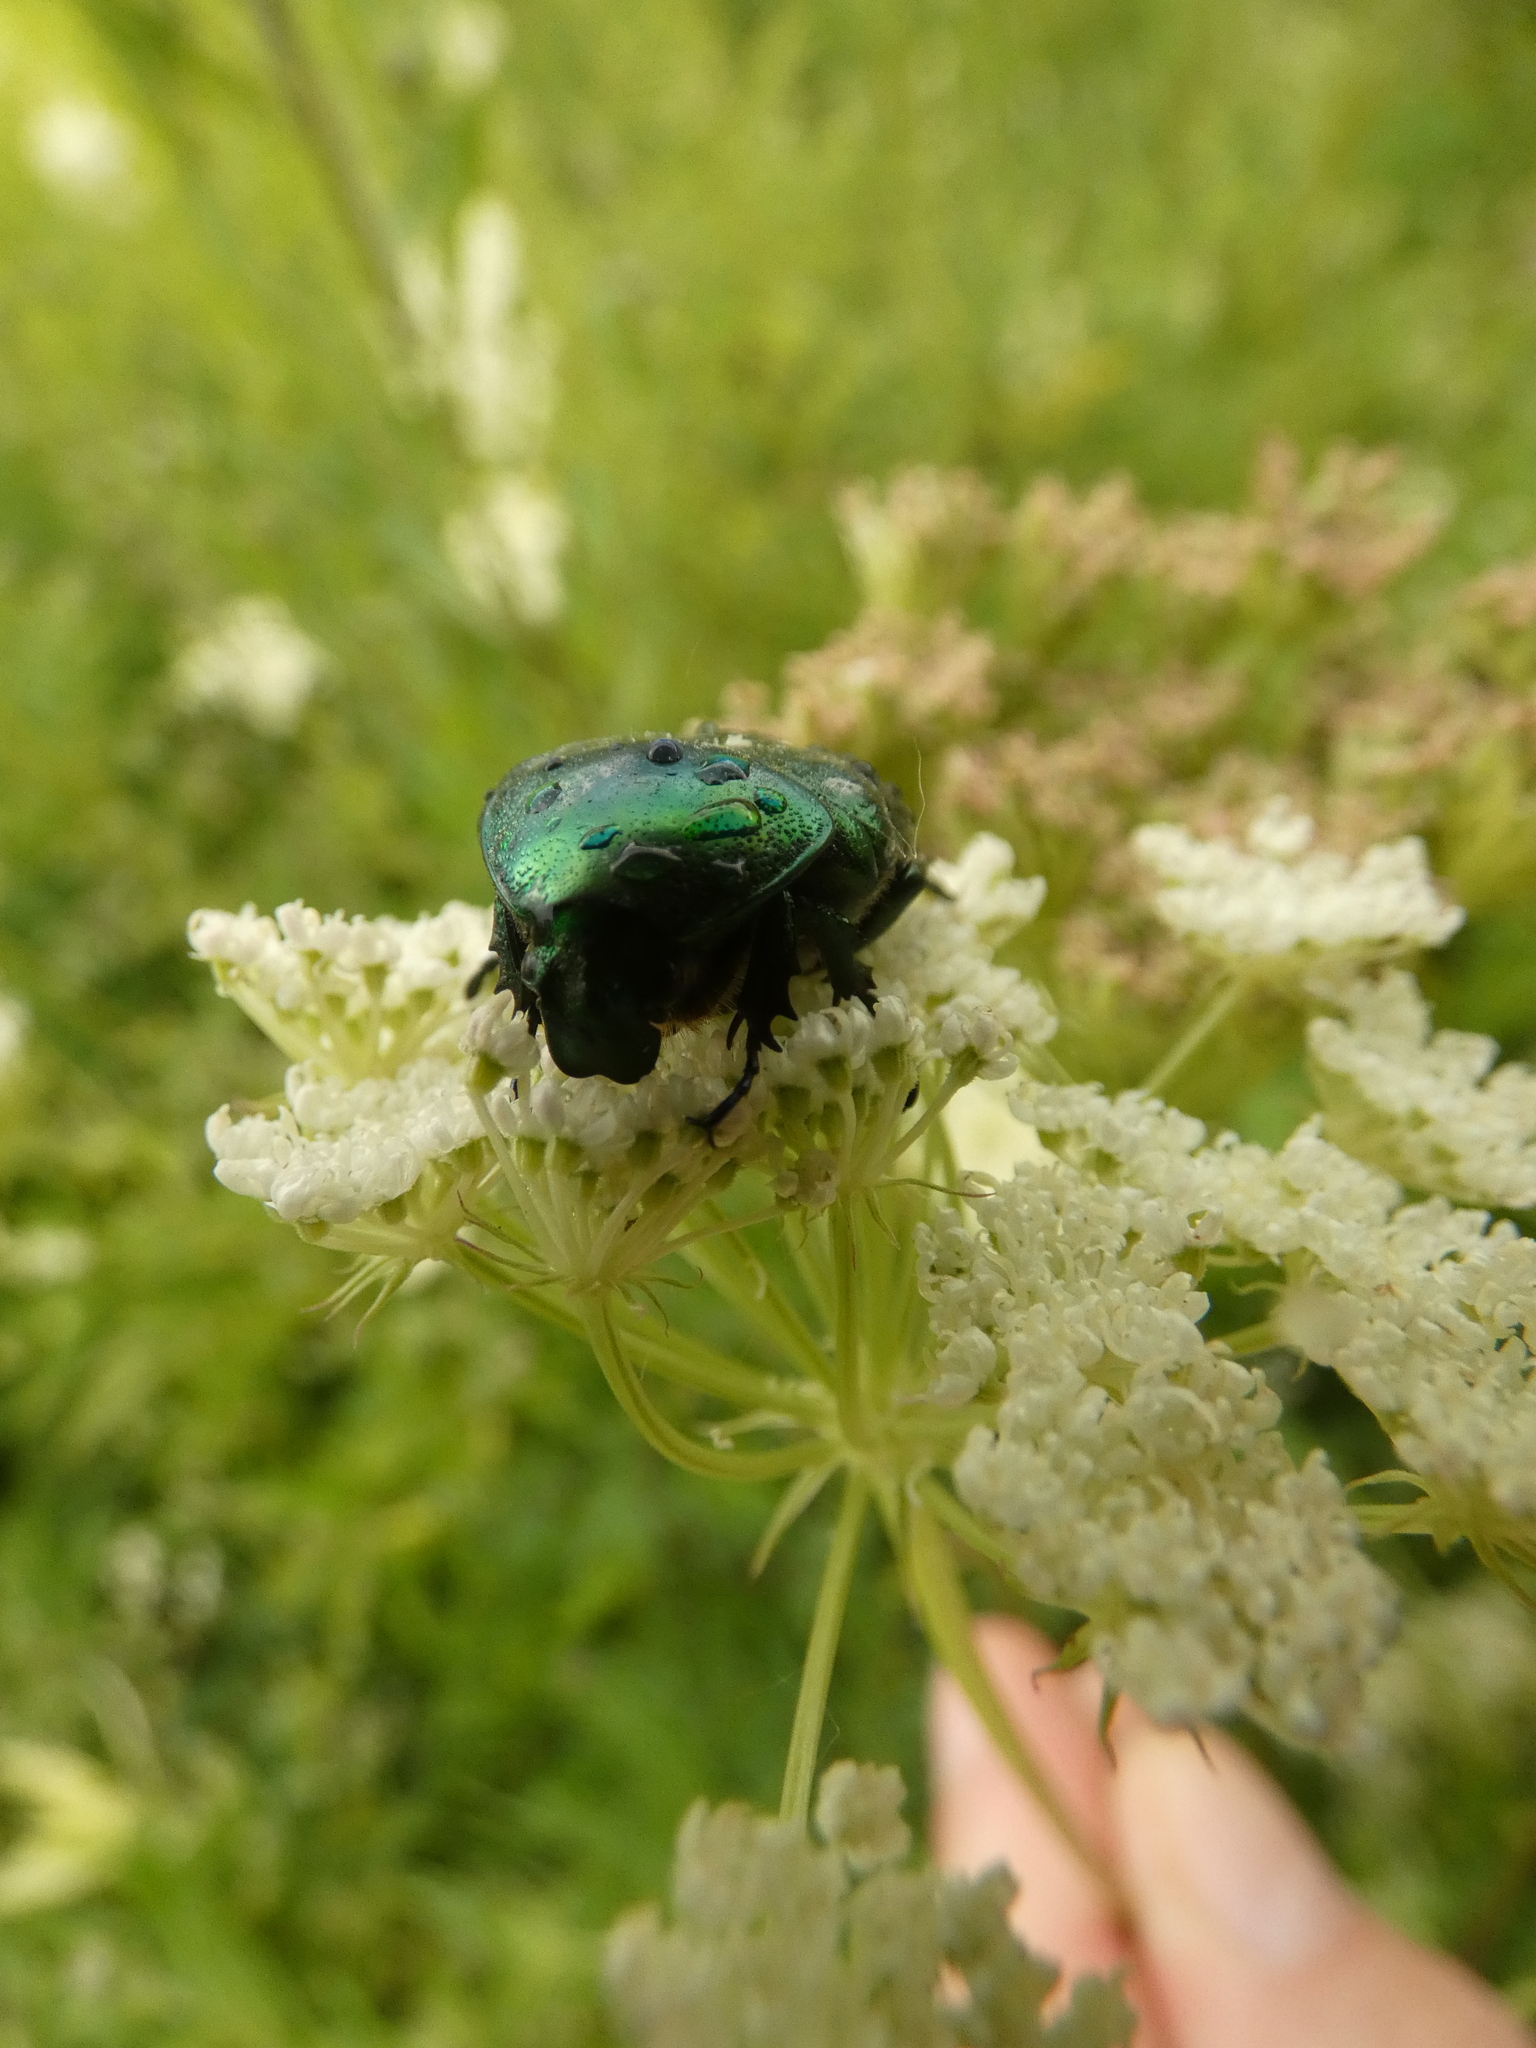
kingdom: Animalia
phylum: Arthropoda
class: Insecta
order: Coleoptera
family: Scarabaeidae
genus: Cetonia
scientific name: Cetonia aurata
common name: Rose chafer
